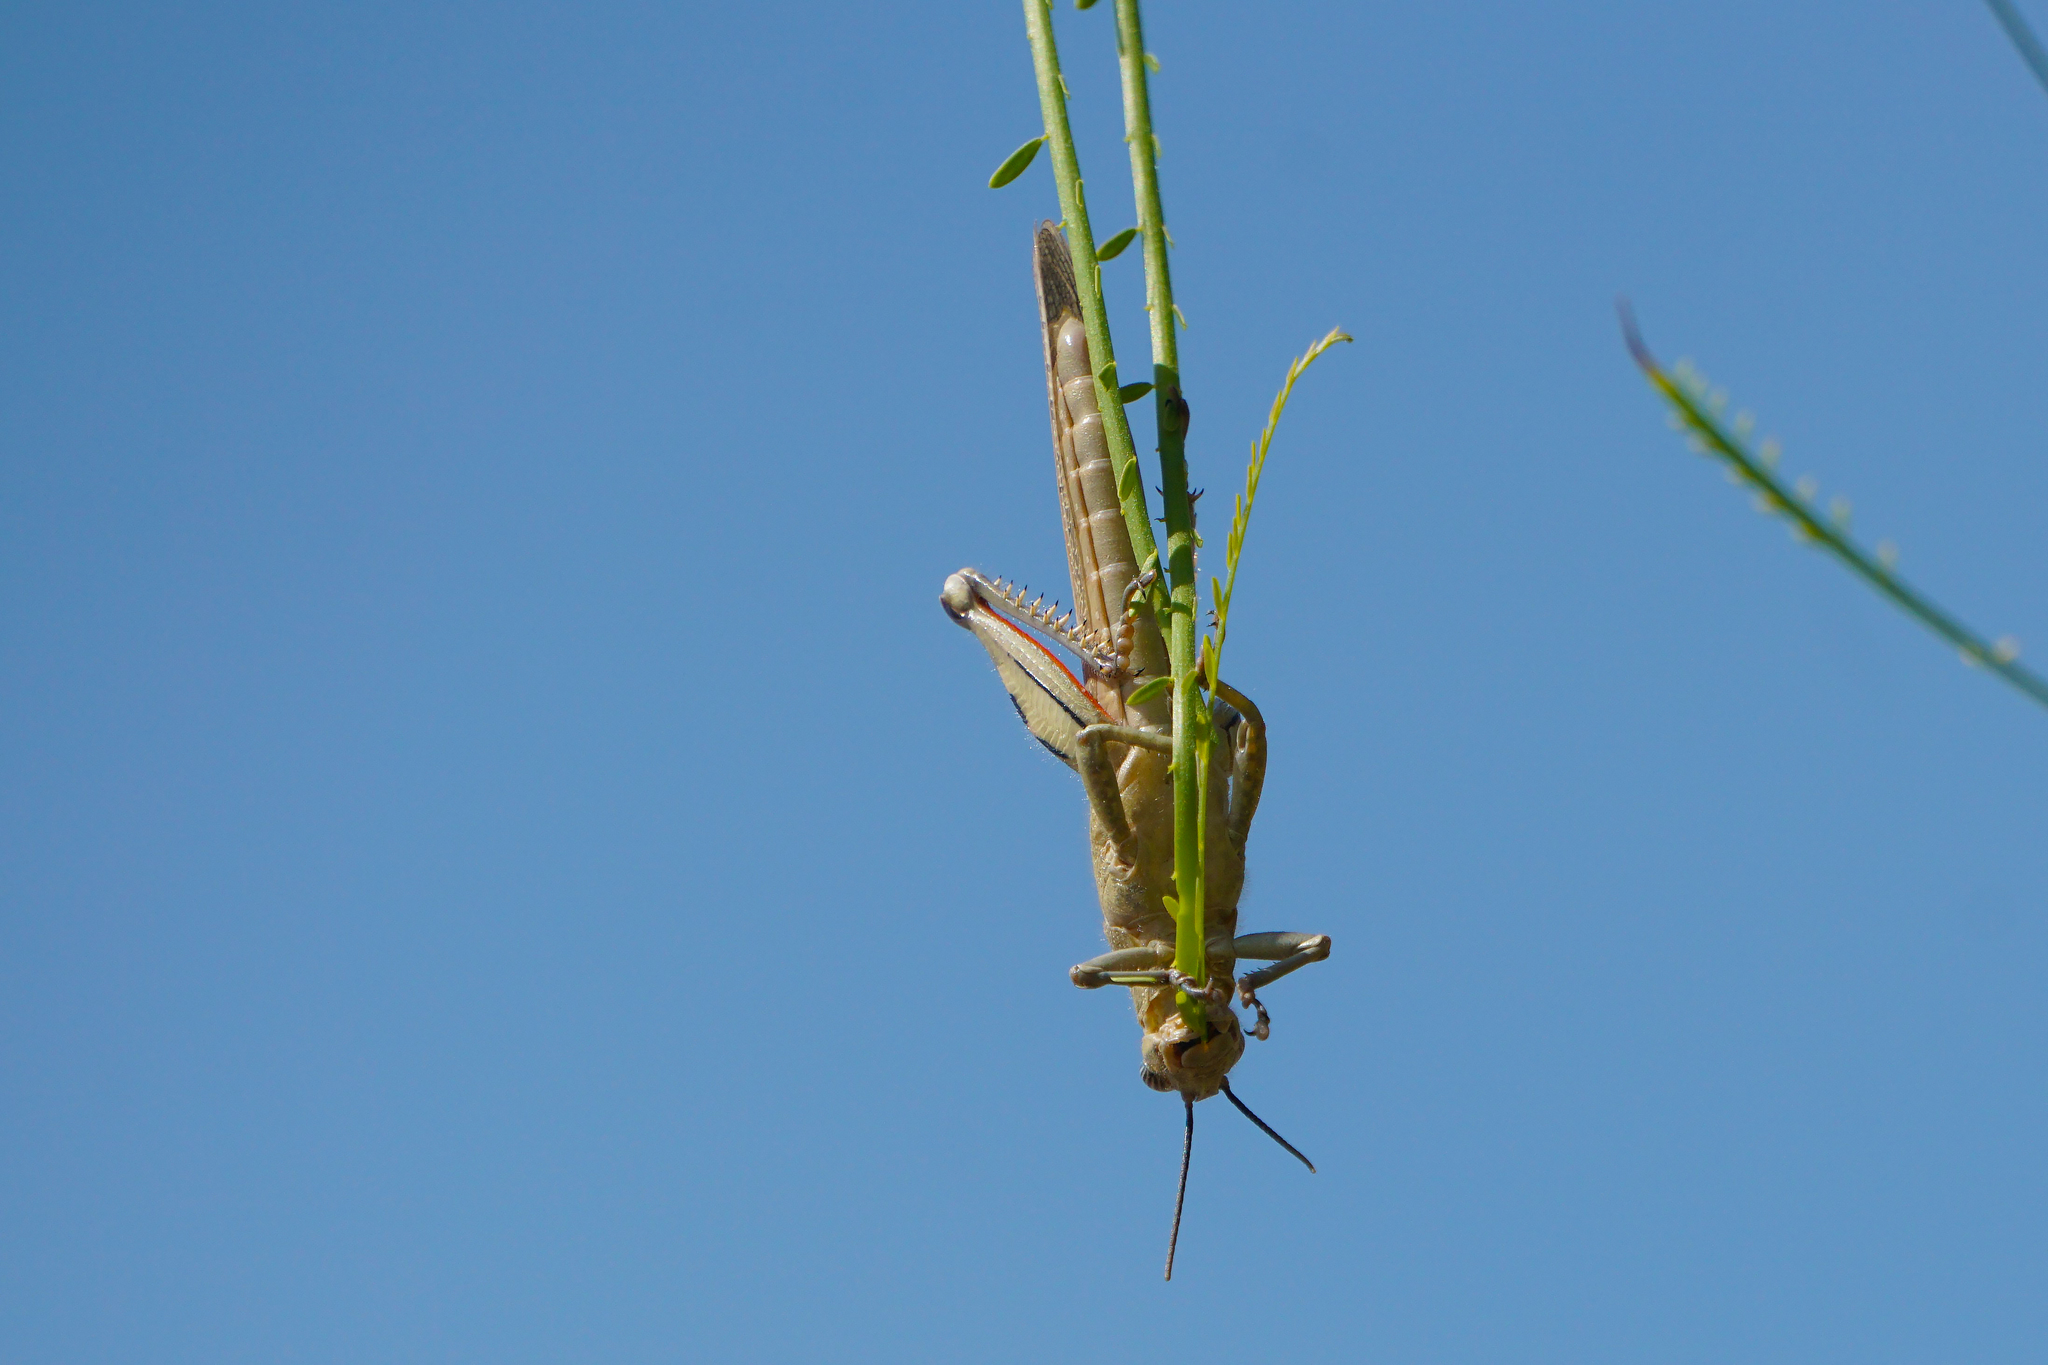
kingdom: Animalia
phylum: Arthropoda
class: Insecta
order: Orthoptera
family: Acrididae
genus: Anacridium
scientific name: Anacridium aegyptium
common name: Egyptian grasshopper
